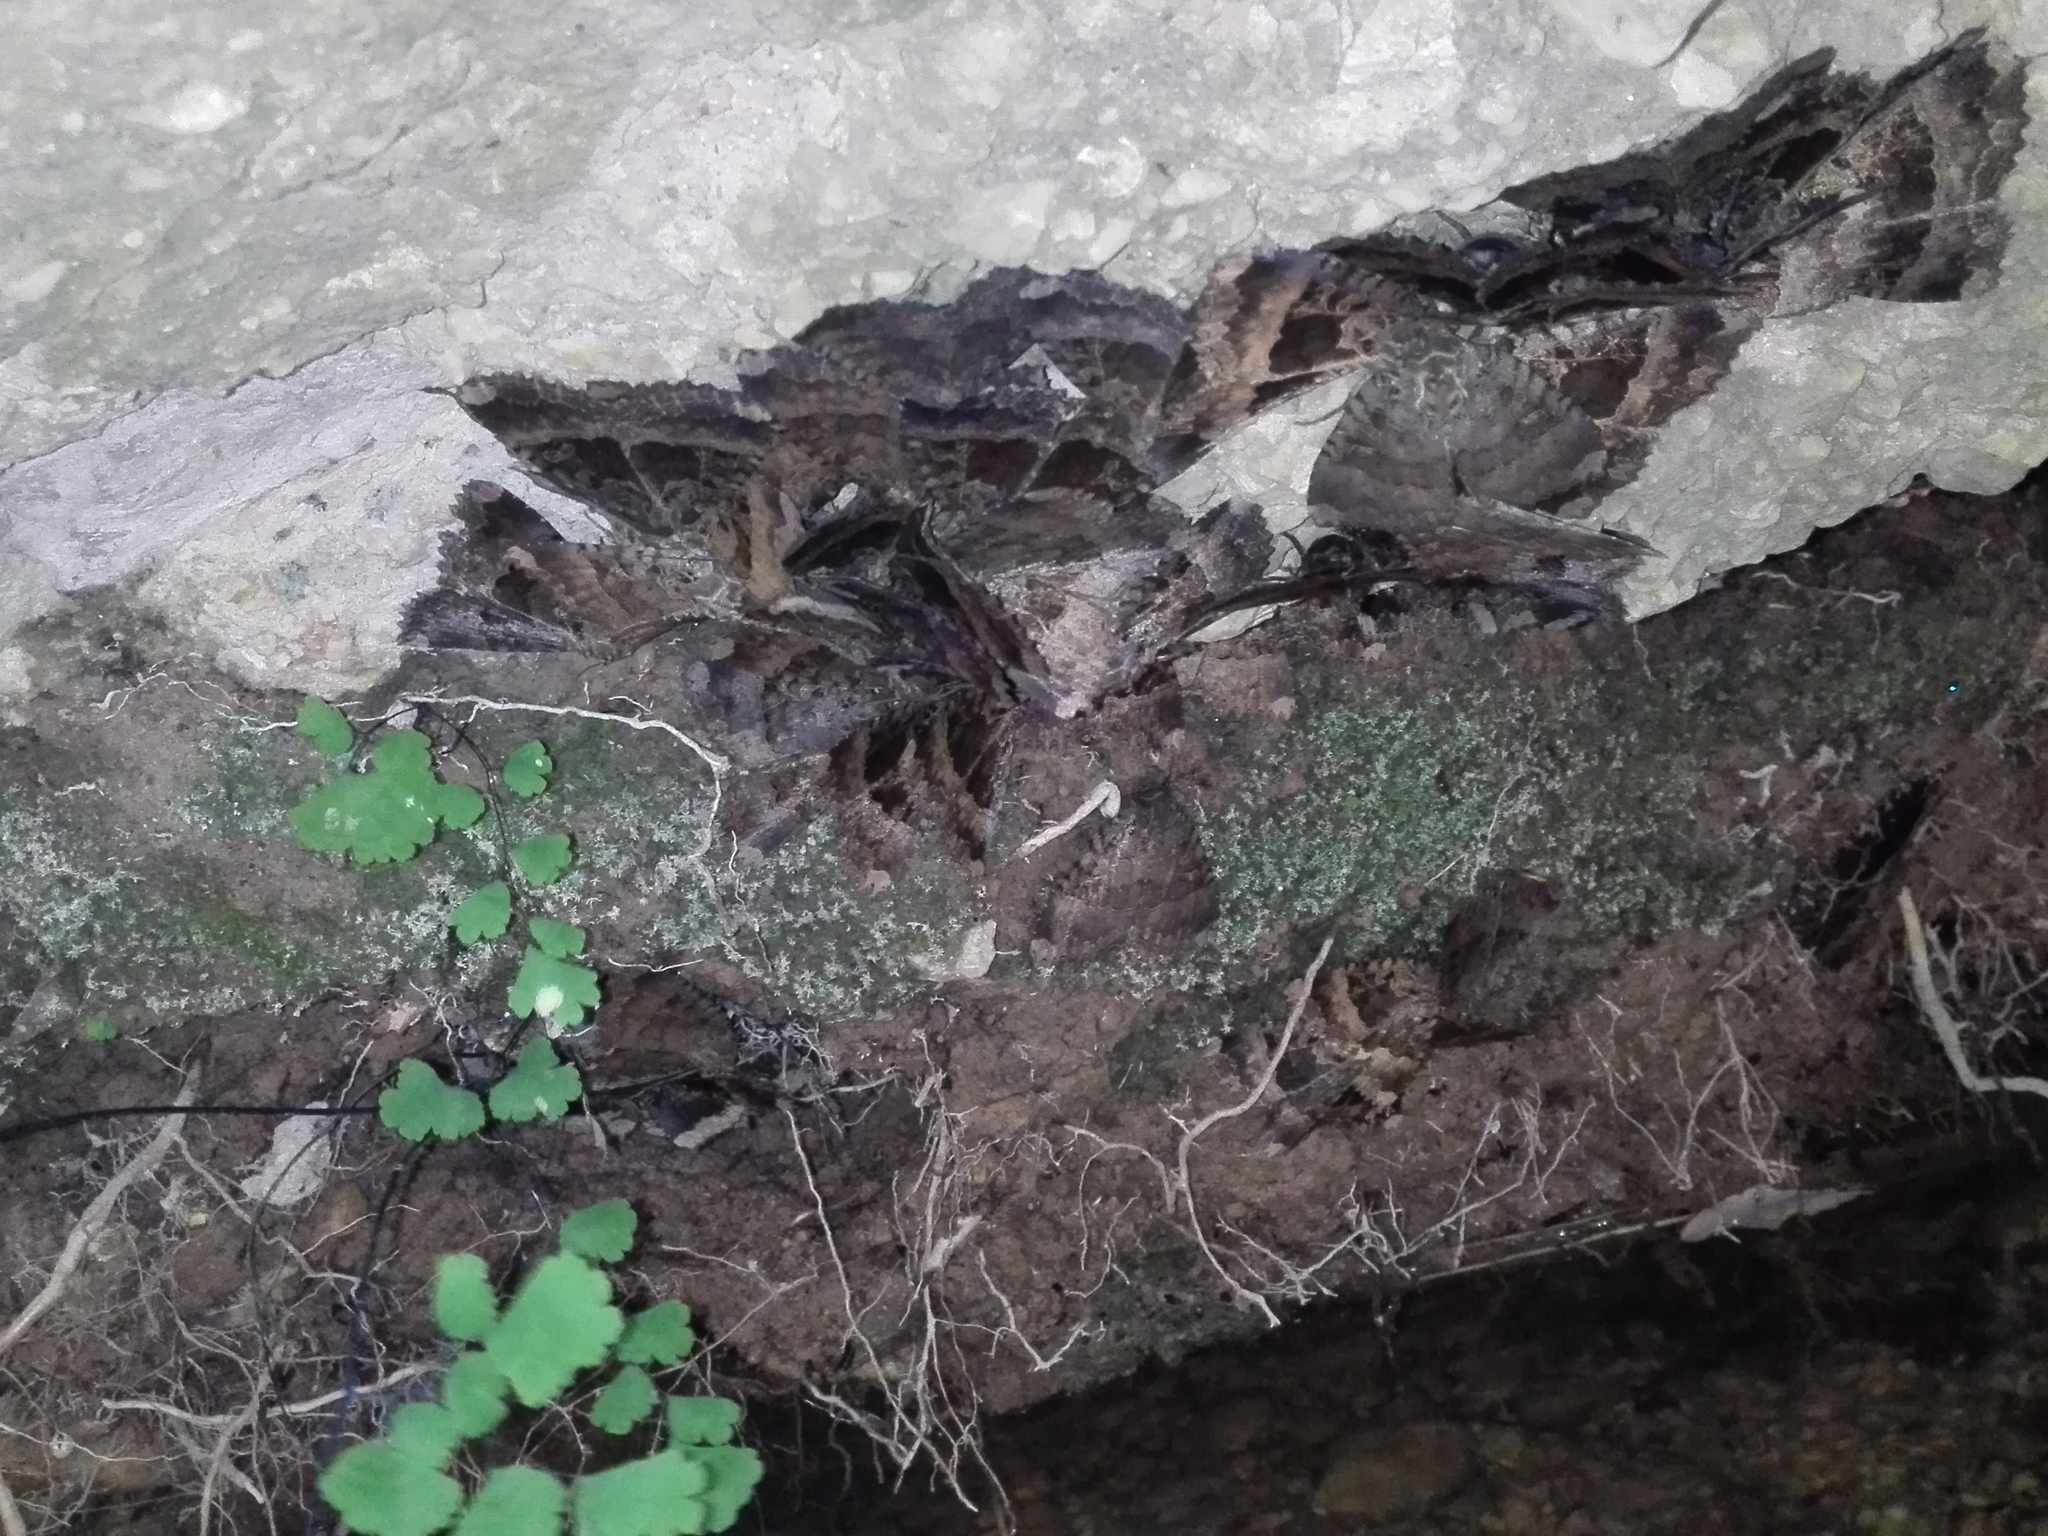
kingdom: Animalia
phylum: Arthropoda
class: Insecta
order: Lepidoptera
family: Noctuidae
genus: Mormo
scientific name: Mormo maura
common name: Old lady
